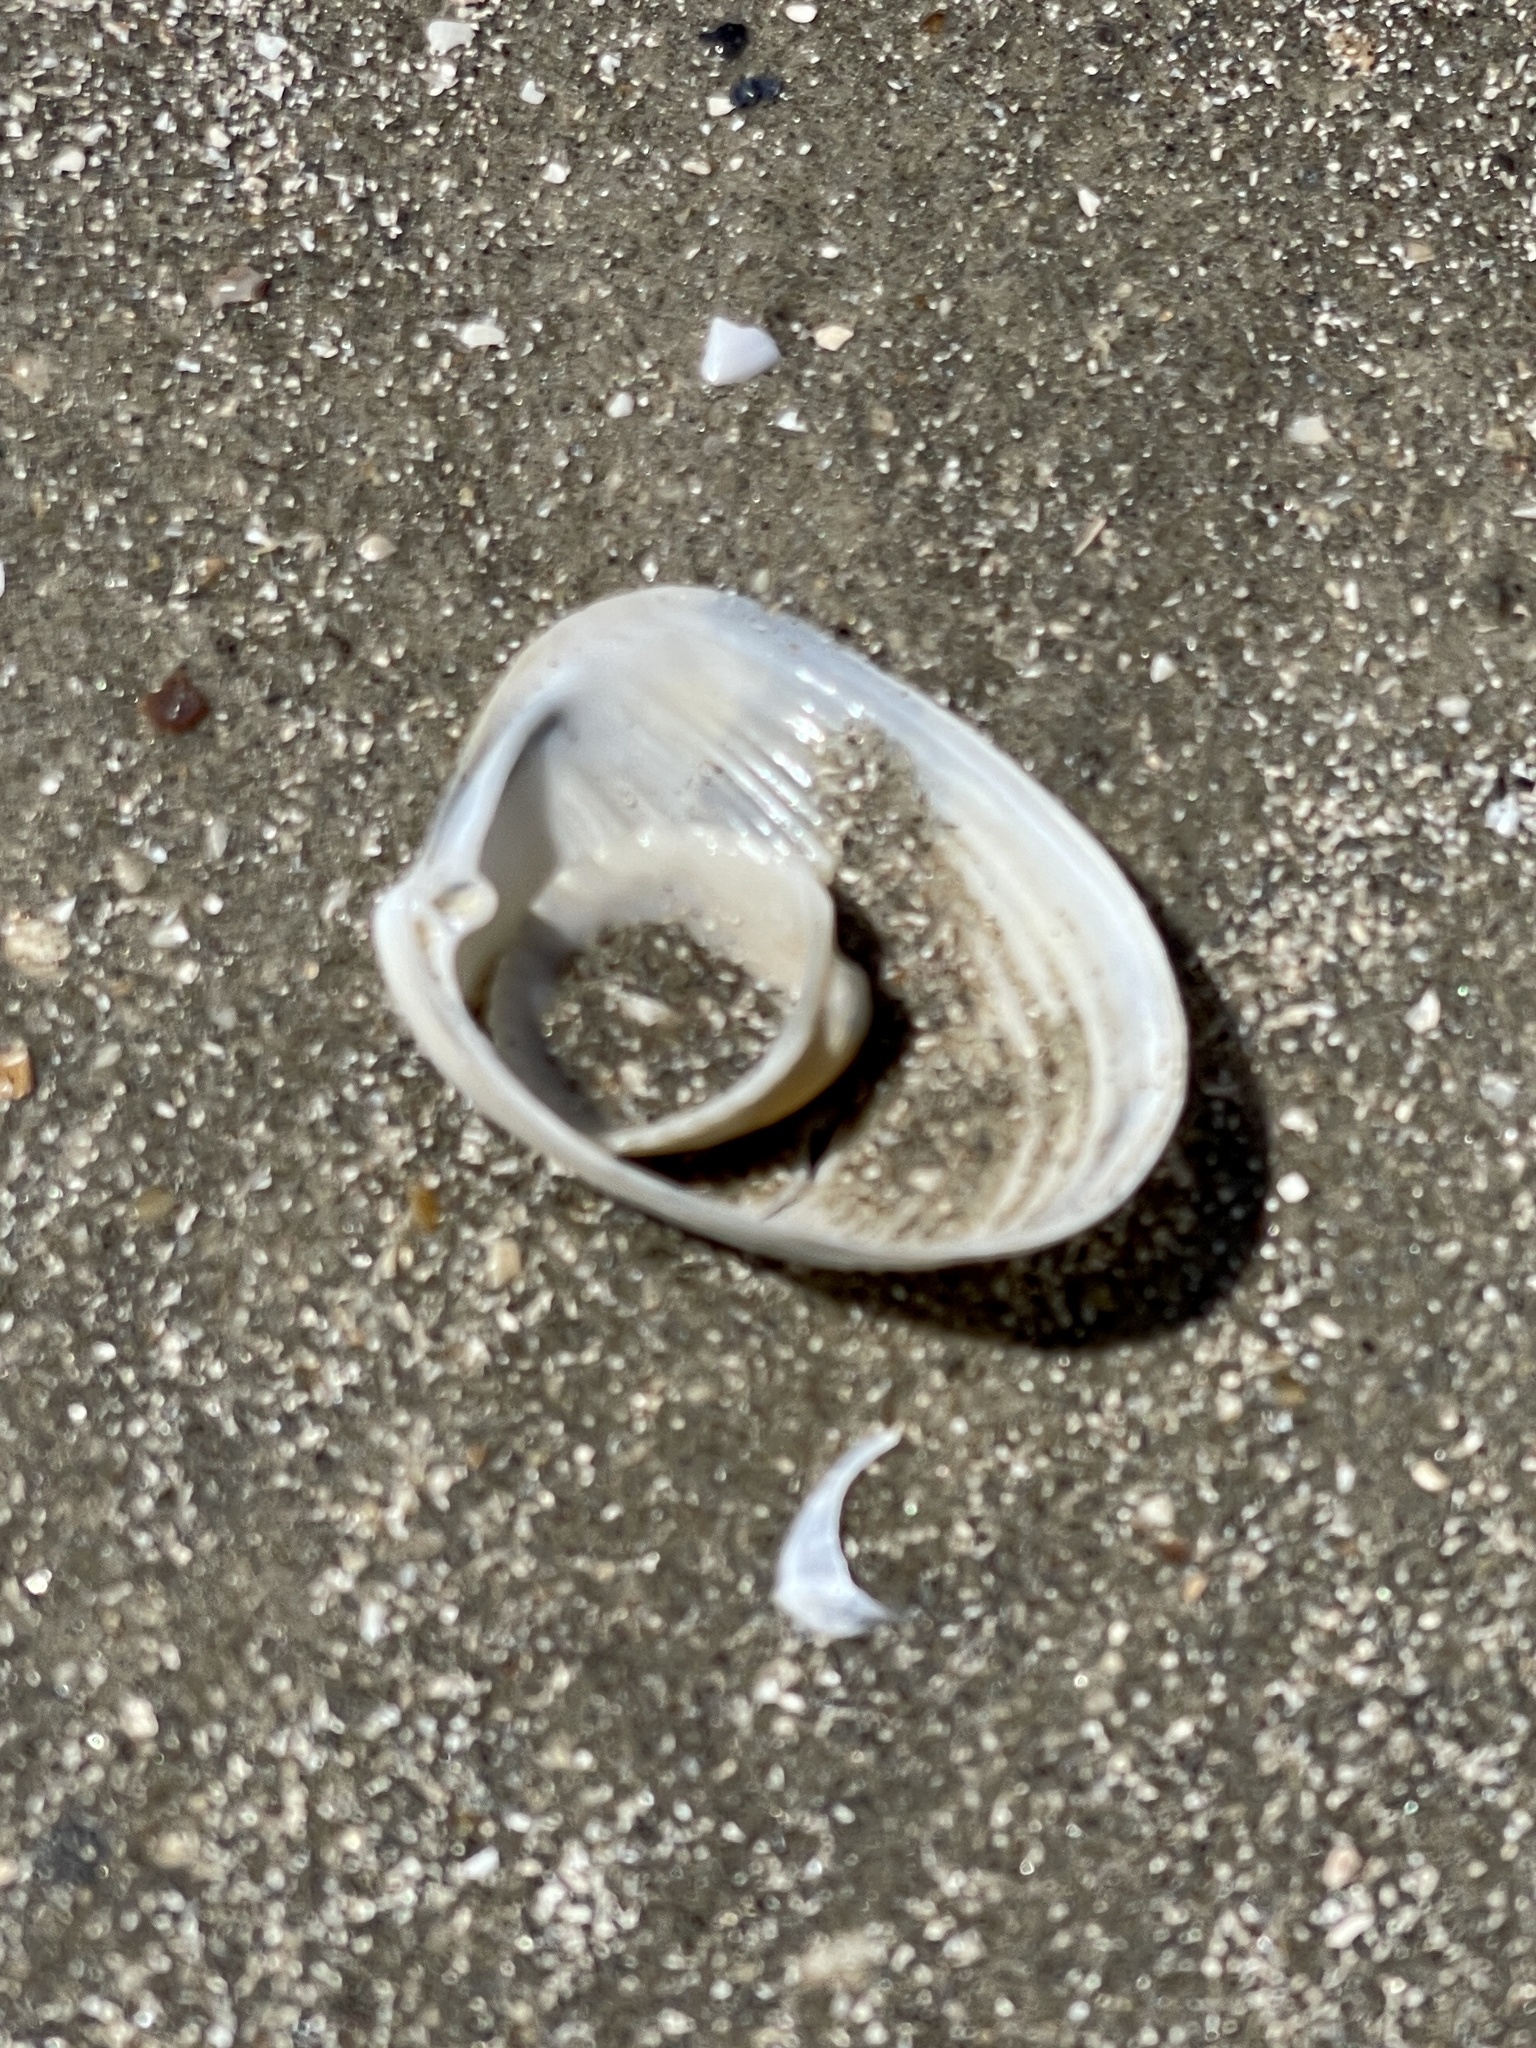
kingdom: Animalia
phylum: Mollusca
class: Bivalvia
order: Venerida
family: Anatinellidae
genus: Raeta
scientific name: Raeta plicatella
